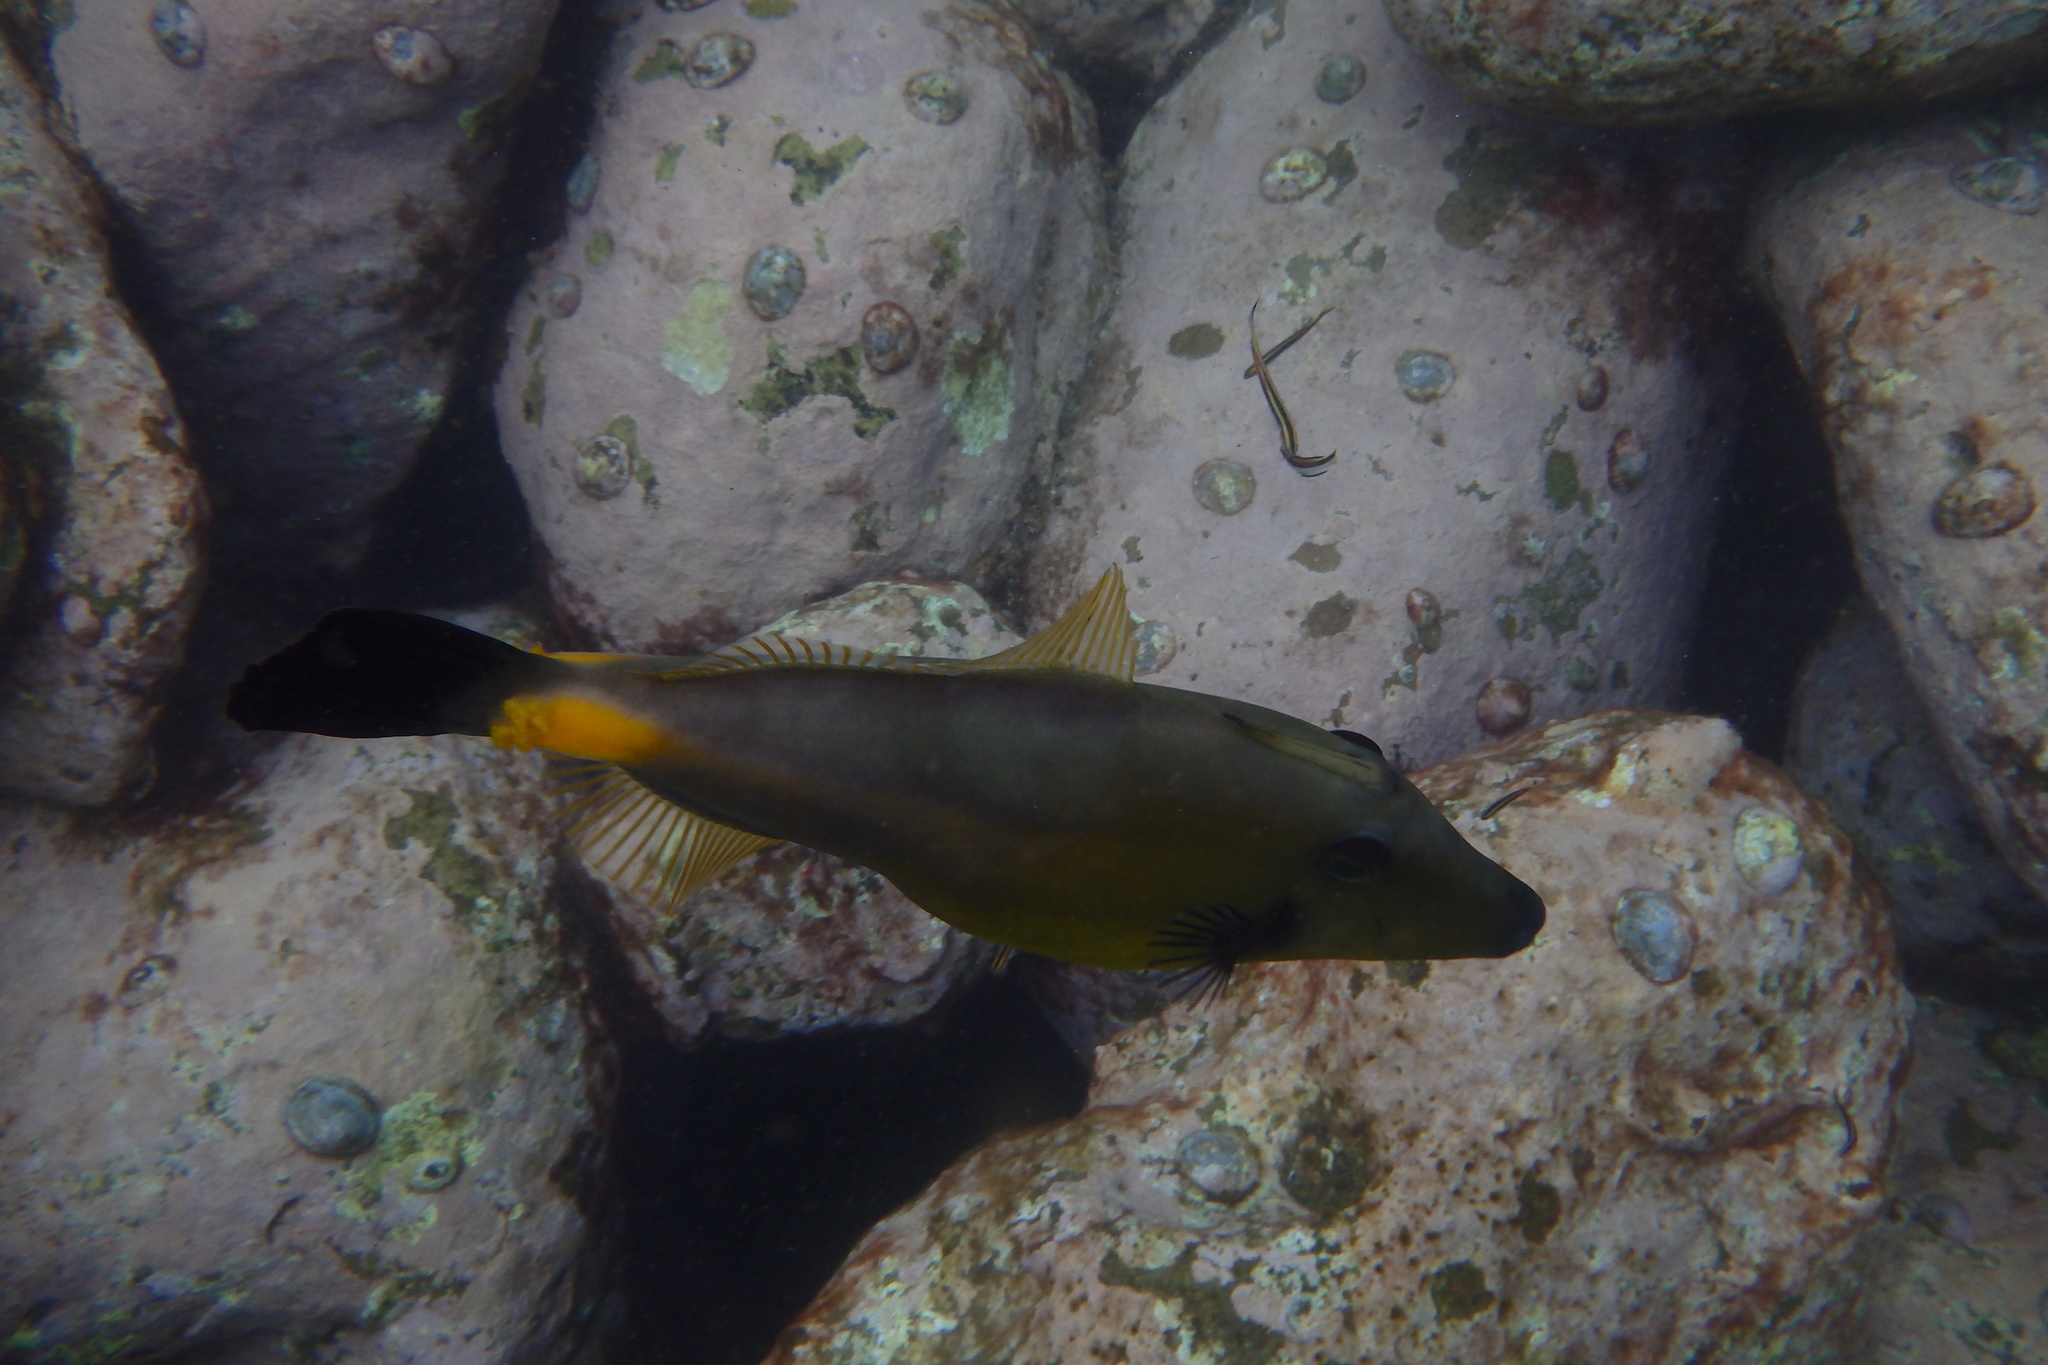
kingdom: Animalia
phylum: Chordata
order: Tetraodontiformes
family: Monacanthidae
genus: Meuschenia
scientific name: Meuschenia flavolineata
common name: Yellowstriped leatherjacket
